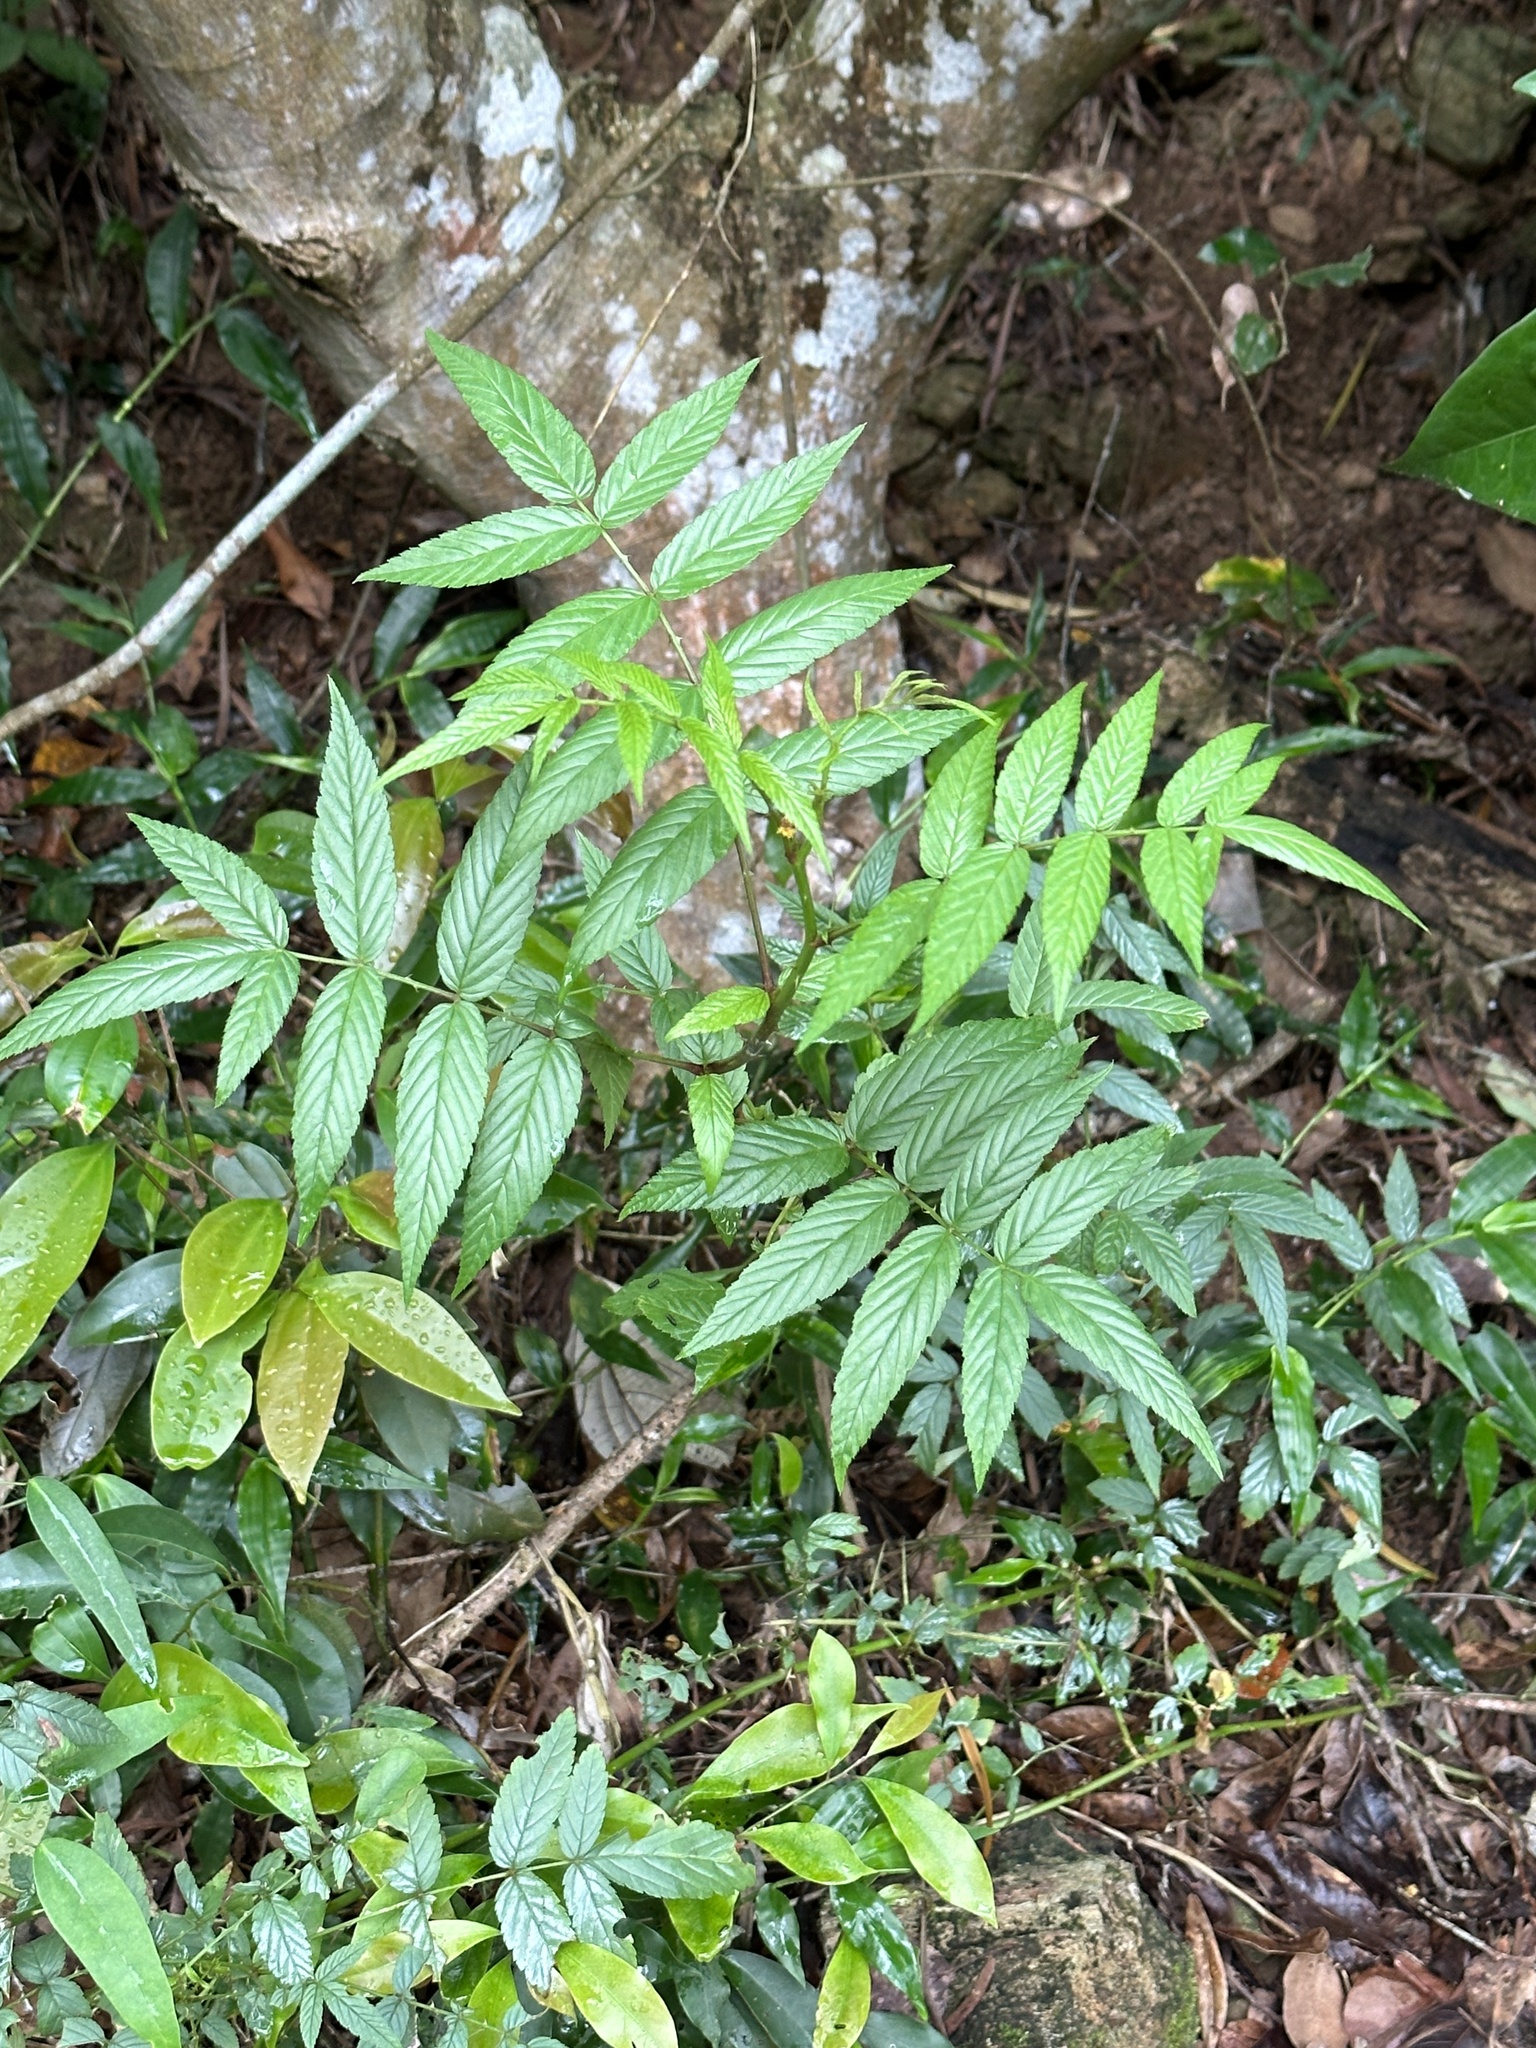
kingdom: Plantae
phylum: Tracheophyta
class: Magnoliopsida
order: Rosales
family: Rosaceae
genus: Rubus
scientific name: Rubus fraxinifolius
